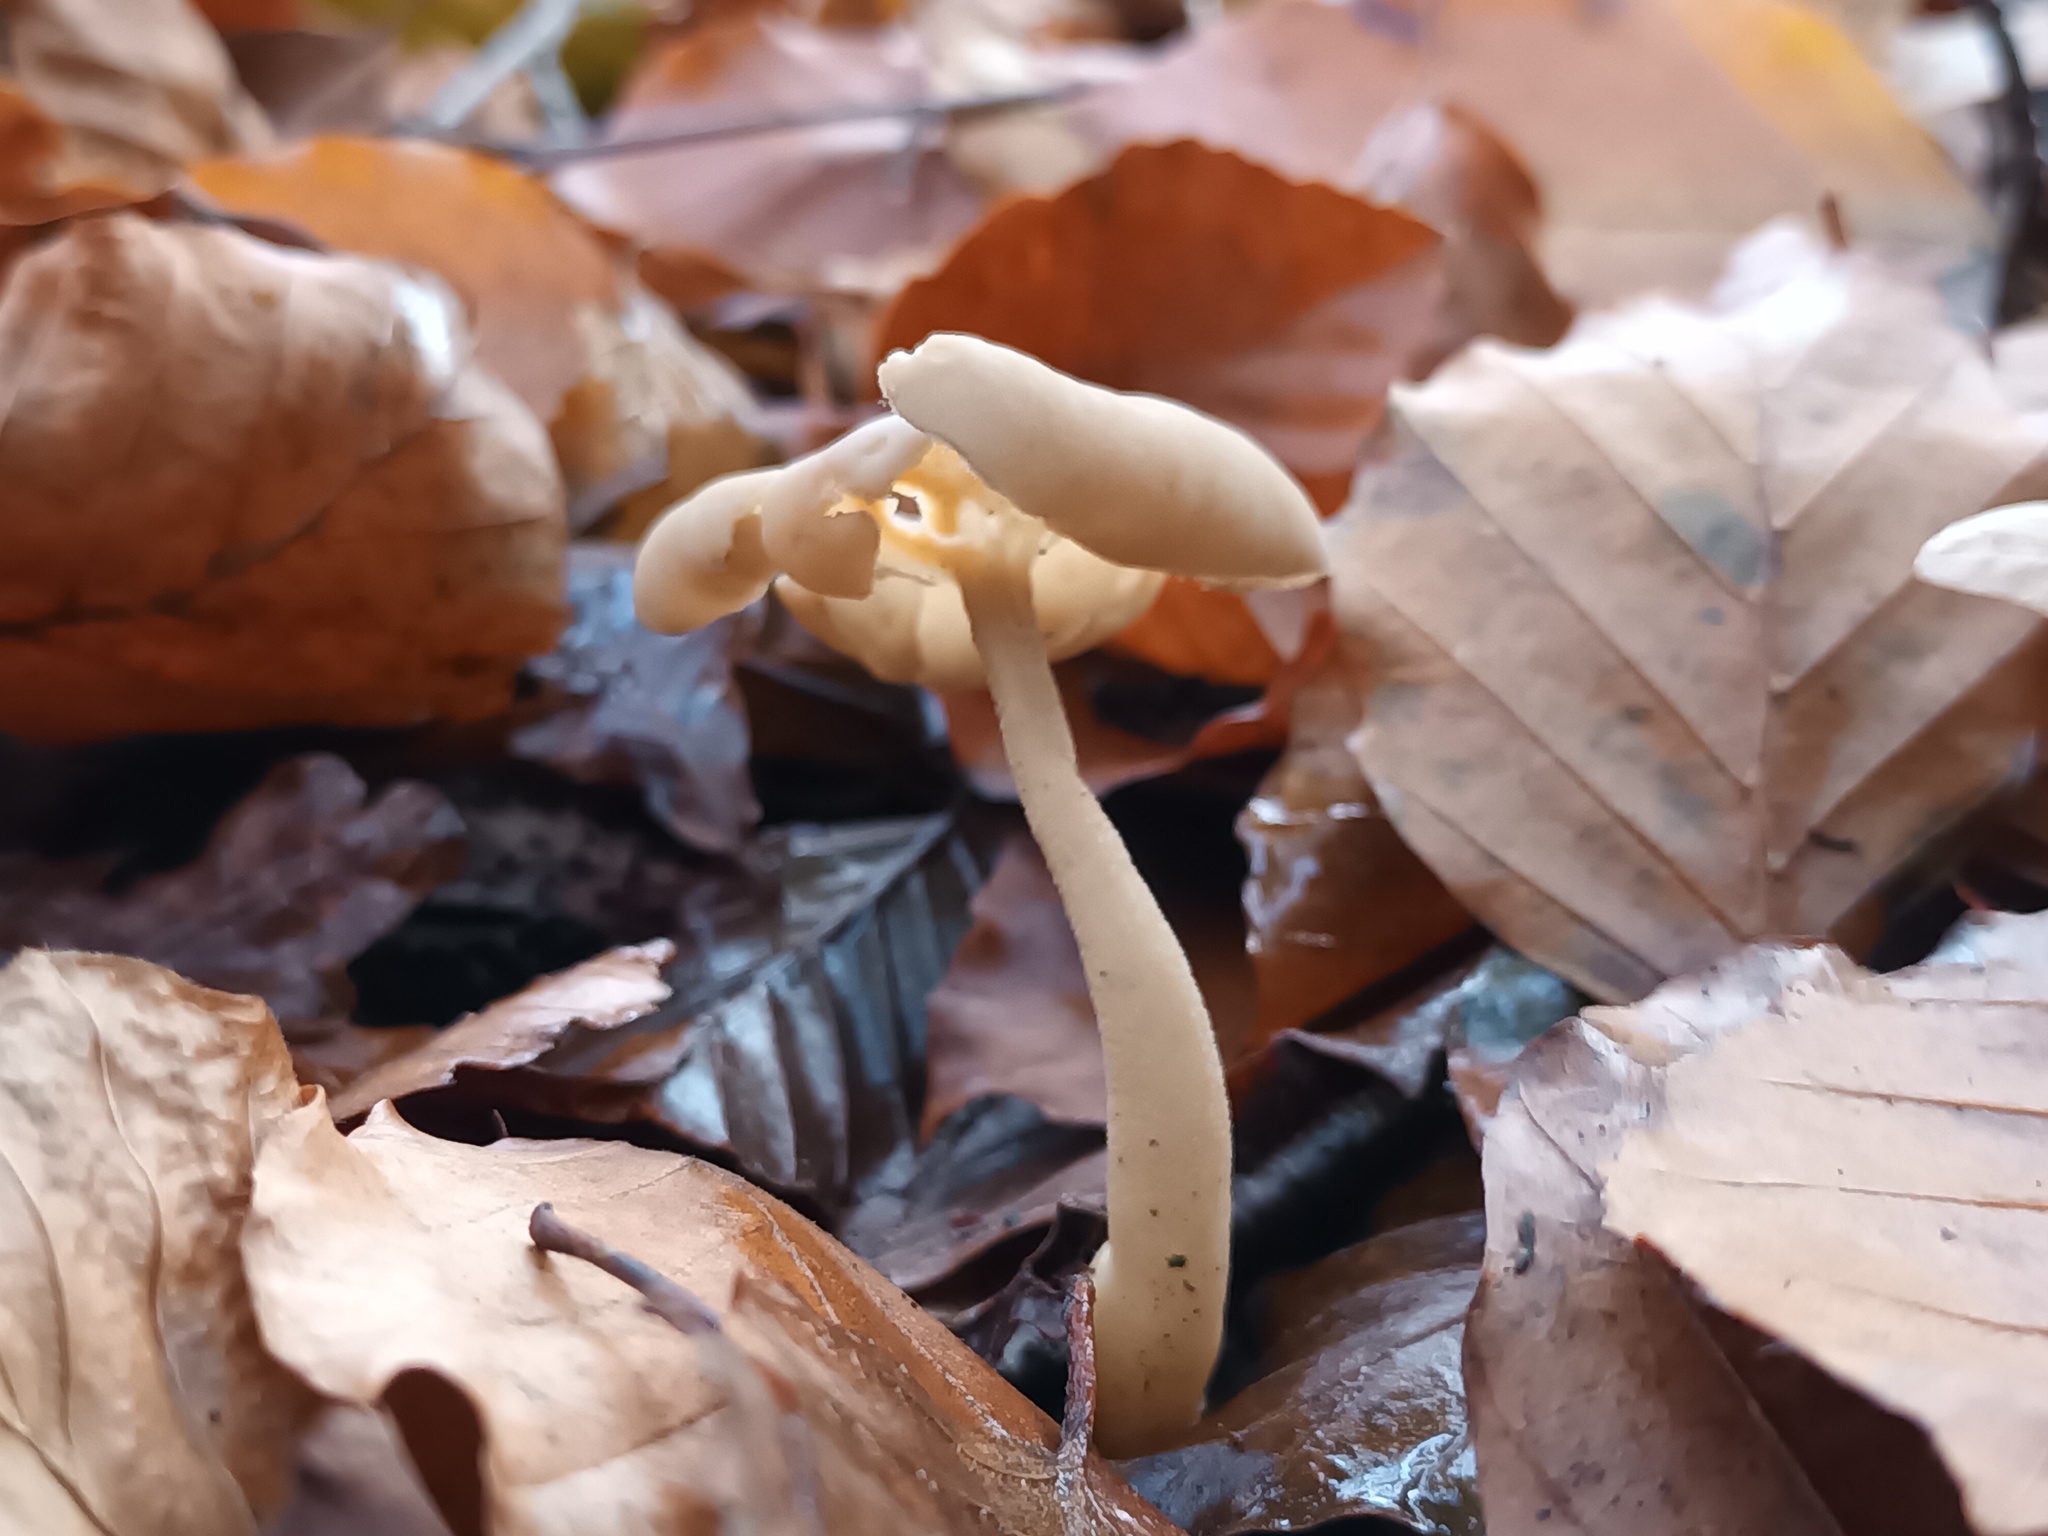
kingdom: Fungi
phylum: Ascomycota
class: Pezizomycetes
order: Pezizales
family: Helvellaceae
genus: Helvella
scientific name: Helvella elastica
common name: Elastic saddle
